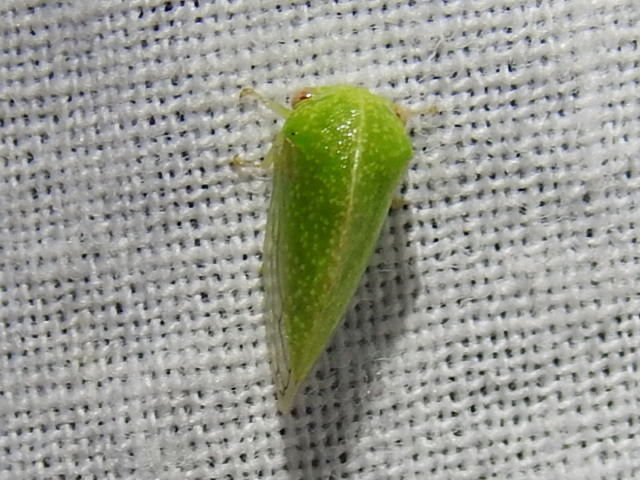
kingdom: Animalia
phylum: Arthropoda
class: Insecta
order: Hemiptera
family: Membracidae
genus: Cyrtolobus
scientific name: Cyrtolobus dixianus
